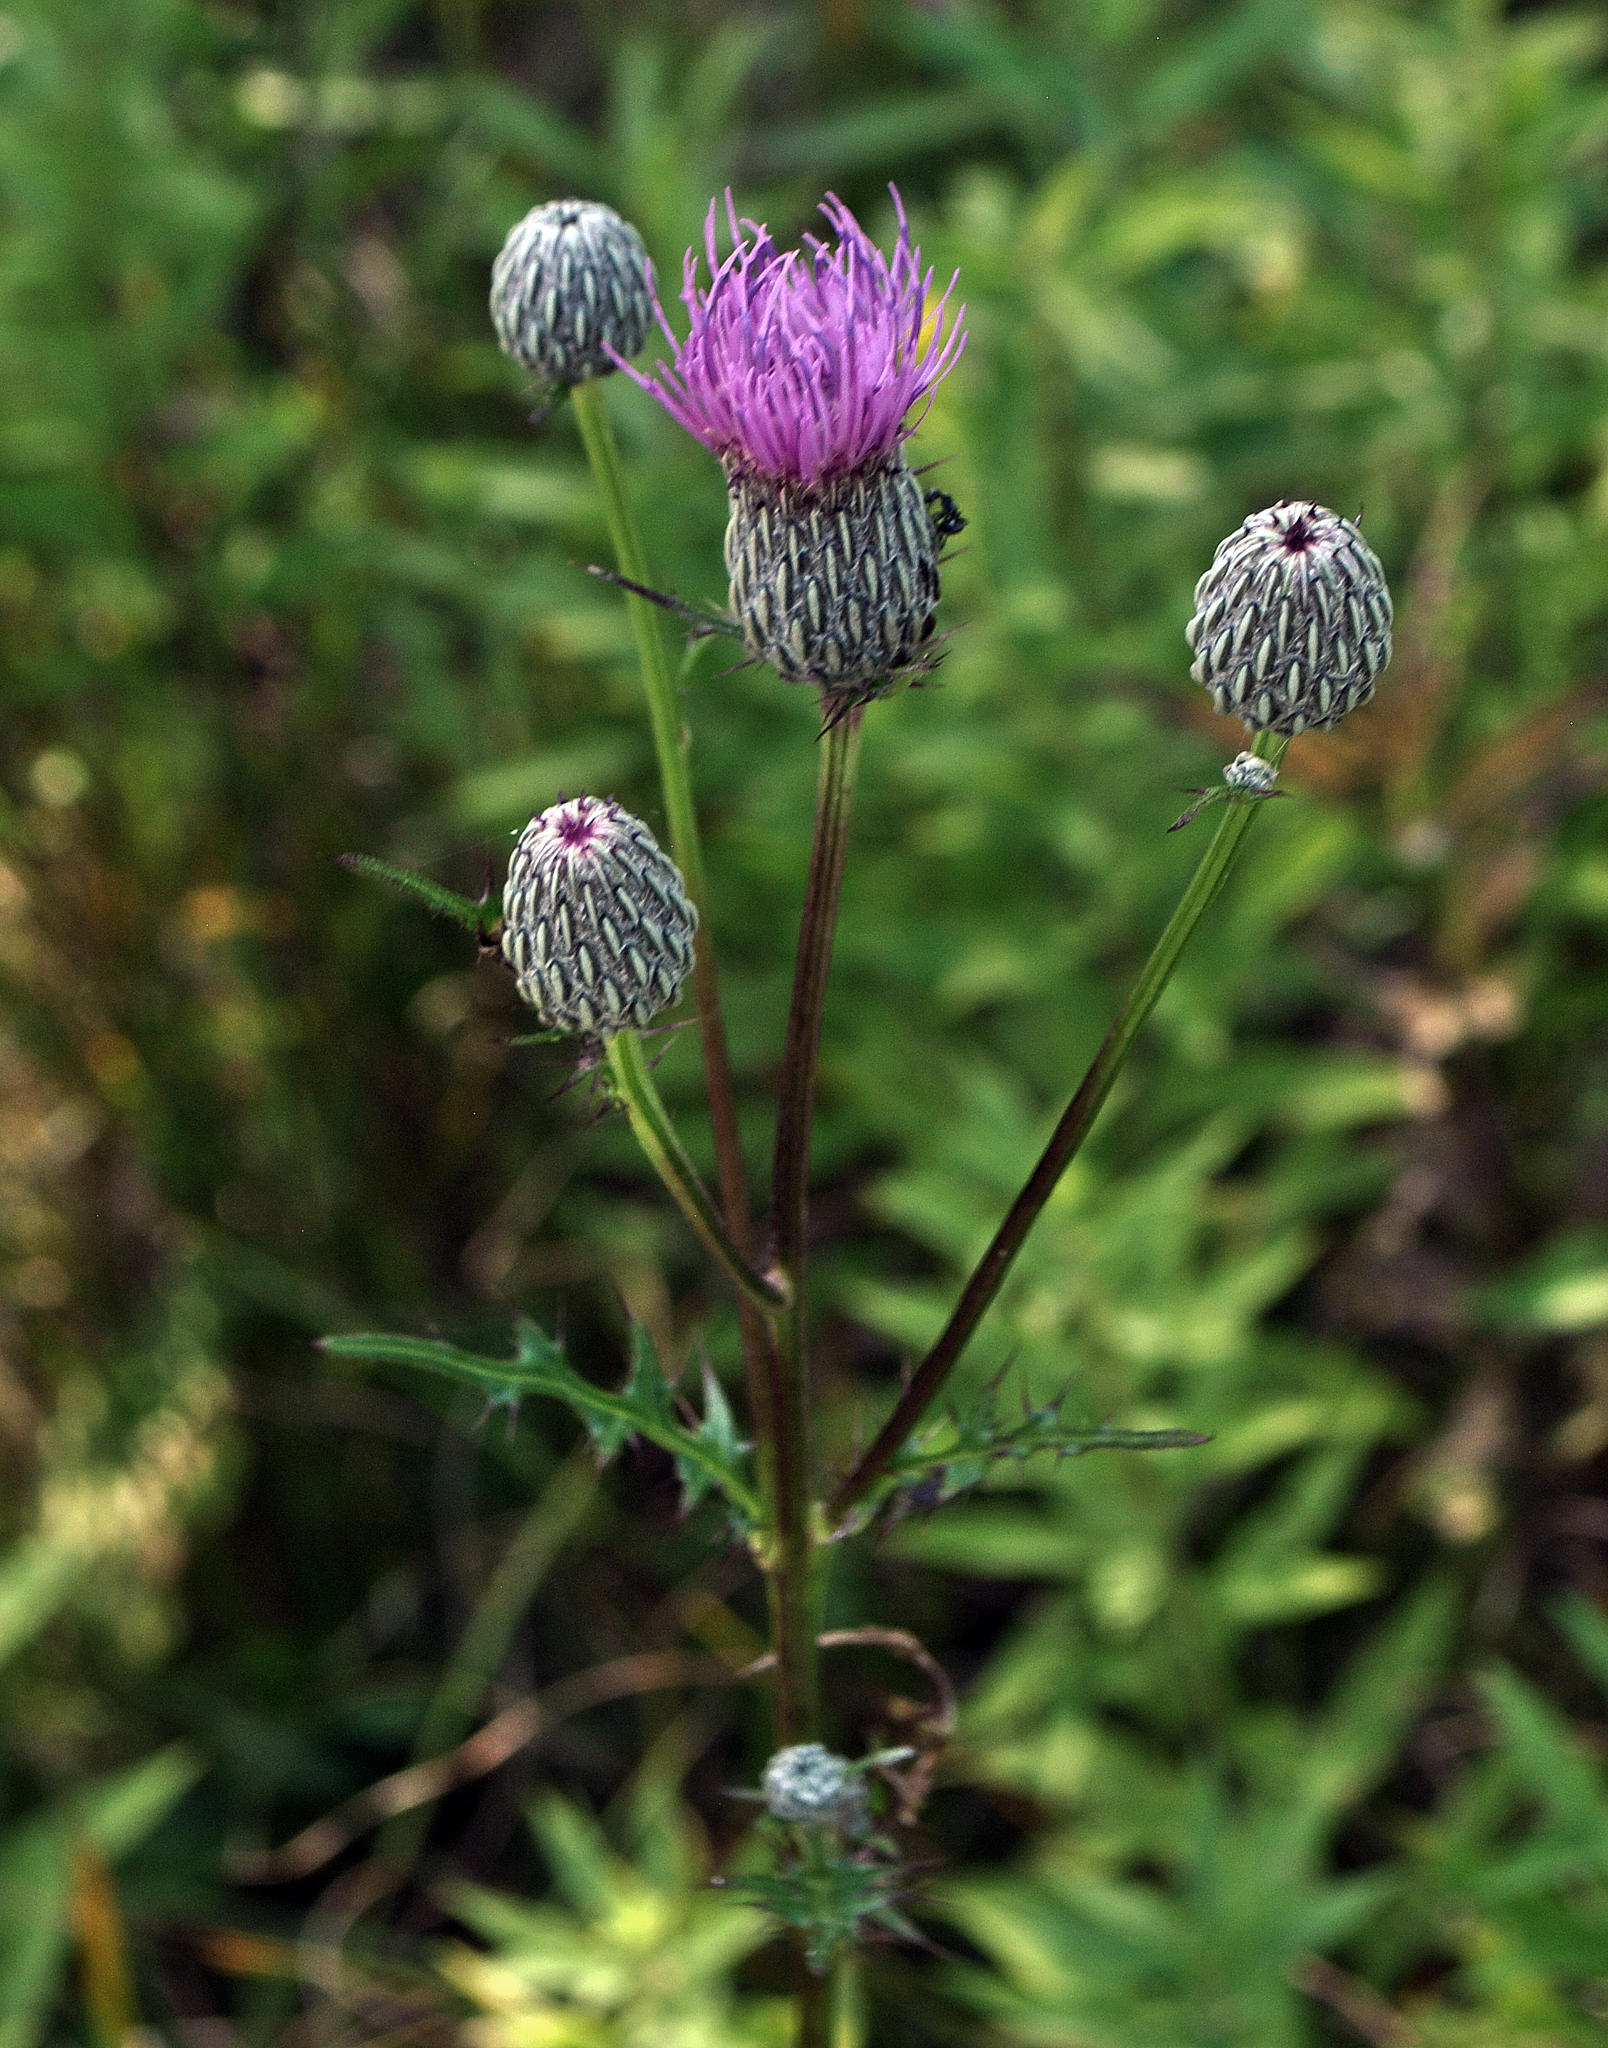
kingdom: Plantae
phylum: Tracheophyta
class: Magnoliopsida
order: Asterales
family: Asteraceae
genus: Cirsium
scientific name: Cirsium muticum
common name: Dunce-nettle
